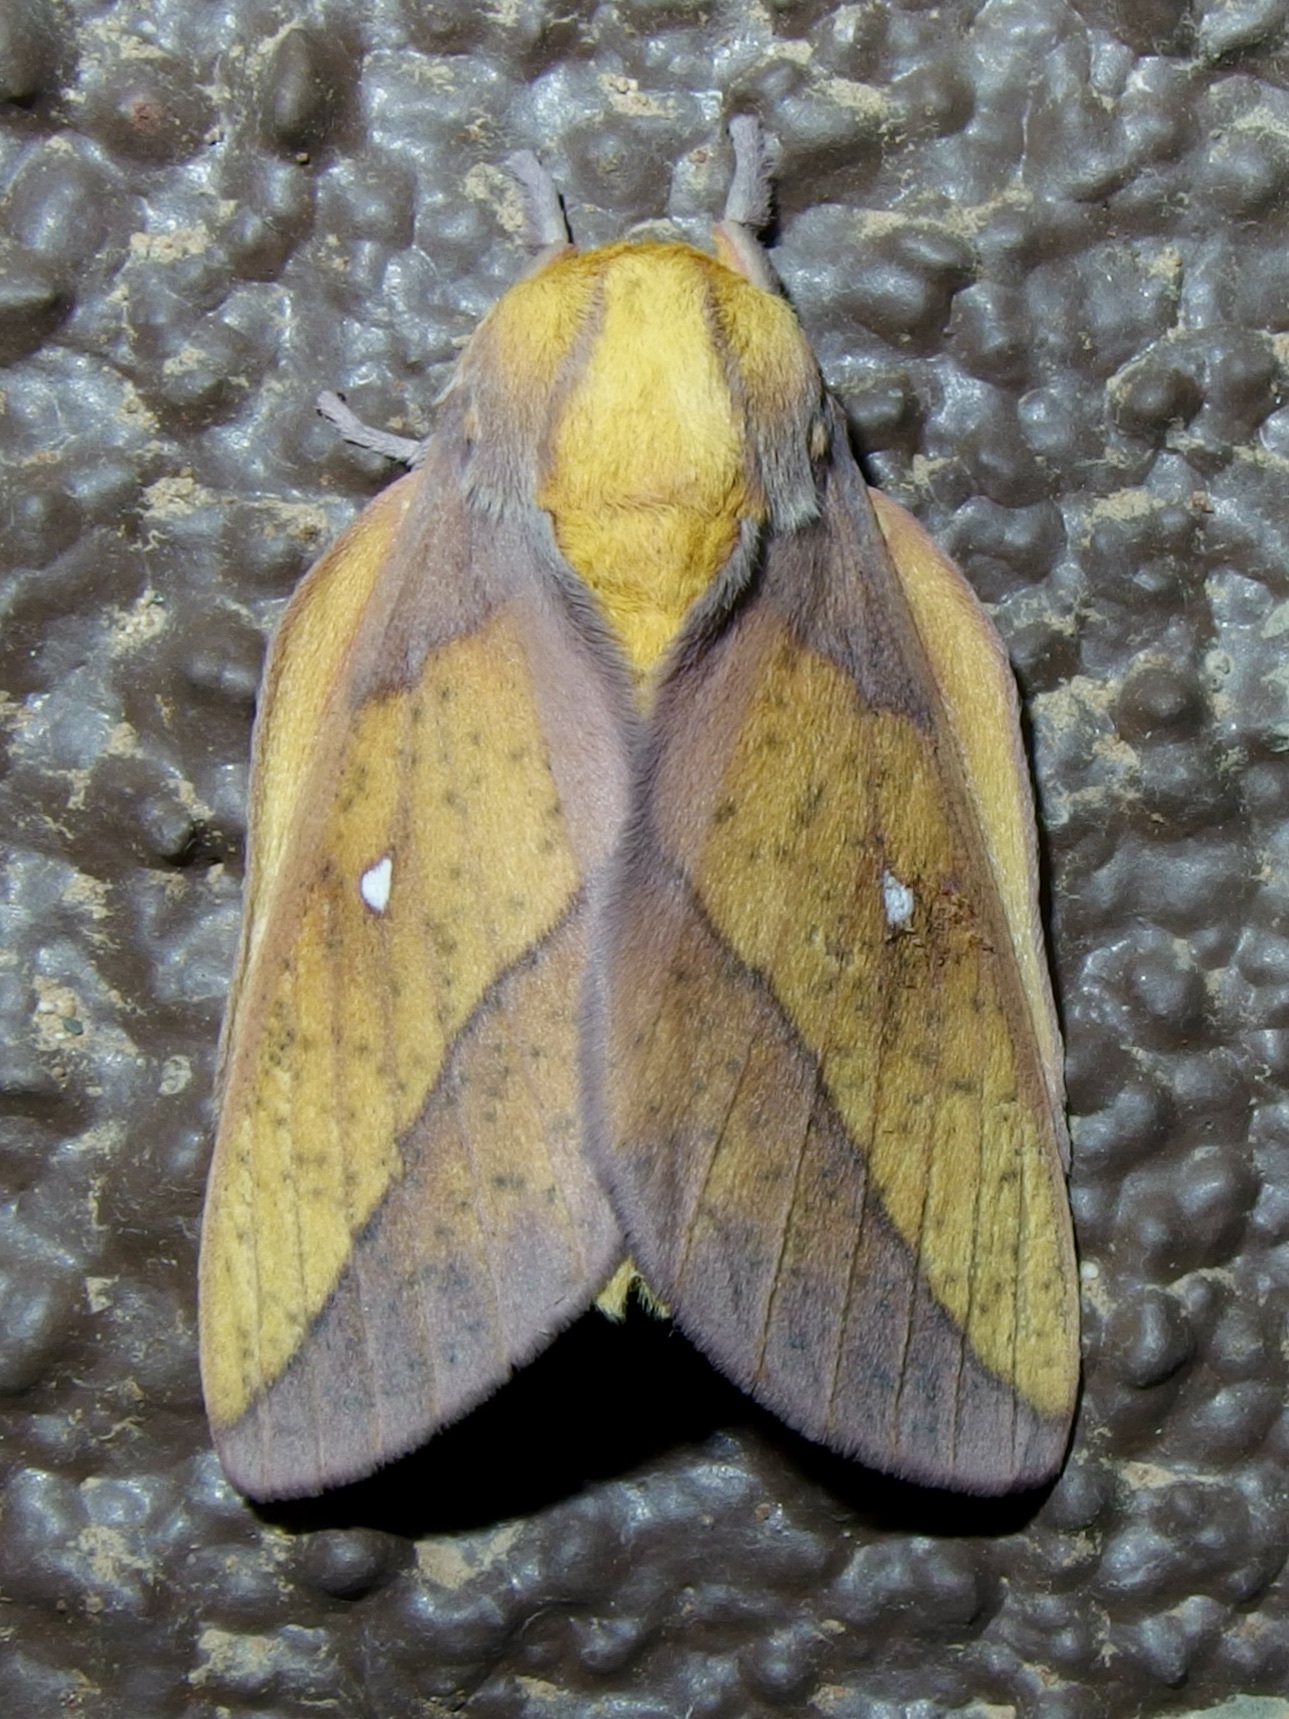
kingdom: Animalia
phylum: Arthropoda
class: Insecta
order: Lepidoptera
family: Saturniidae
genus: Syssphinx
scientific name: Syssphinx montana
